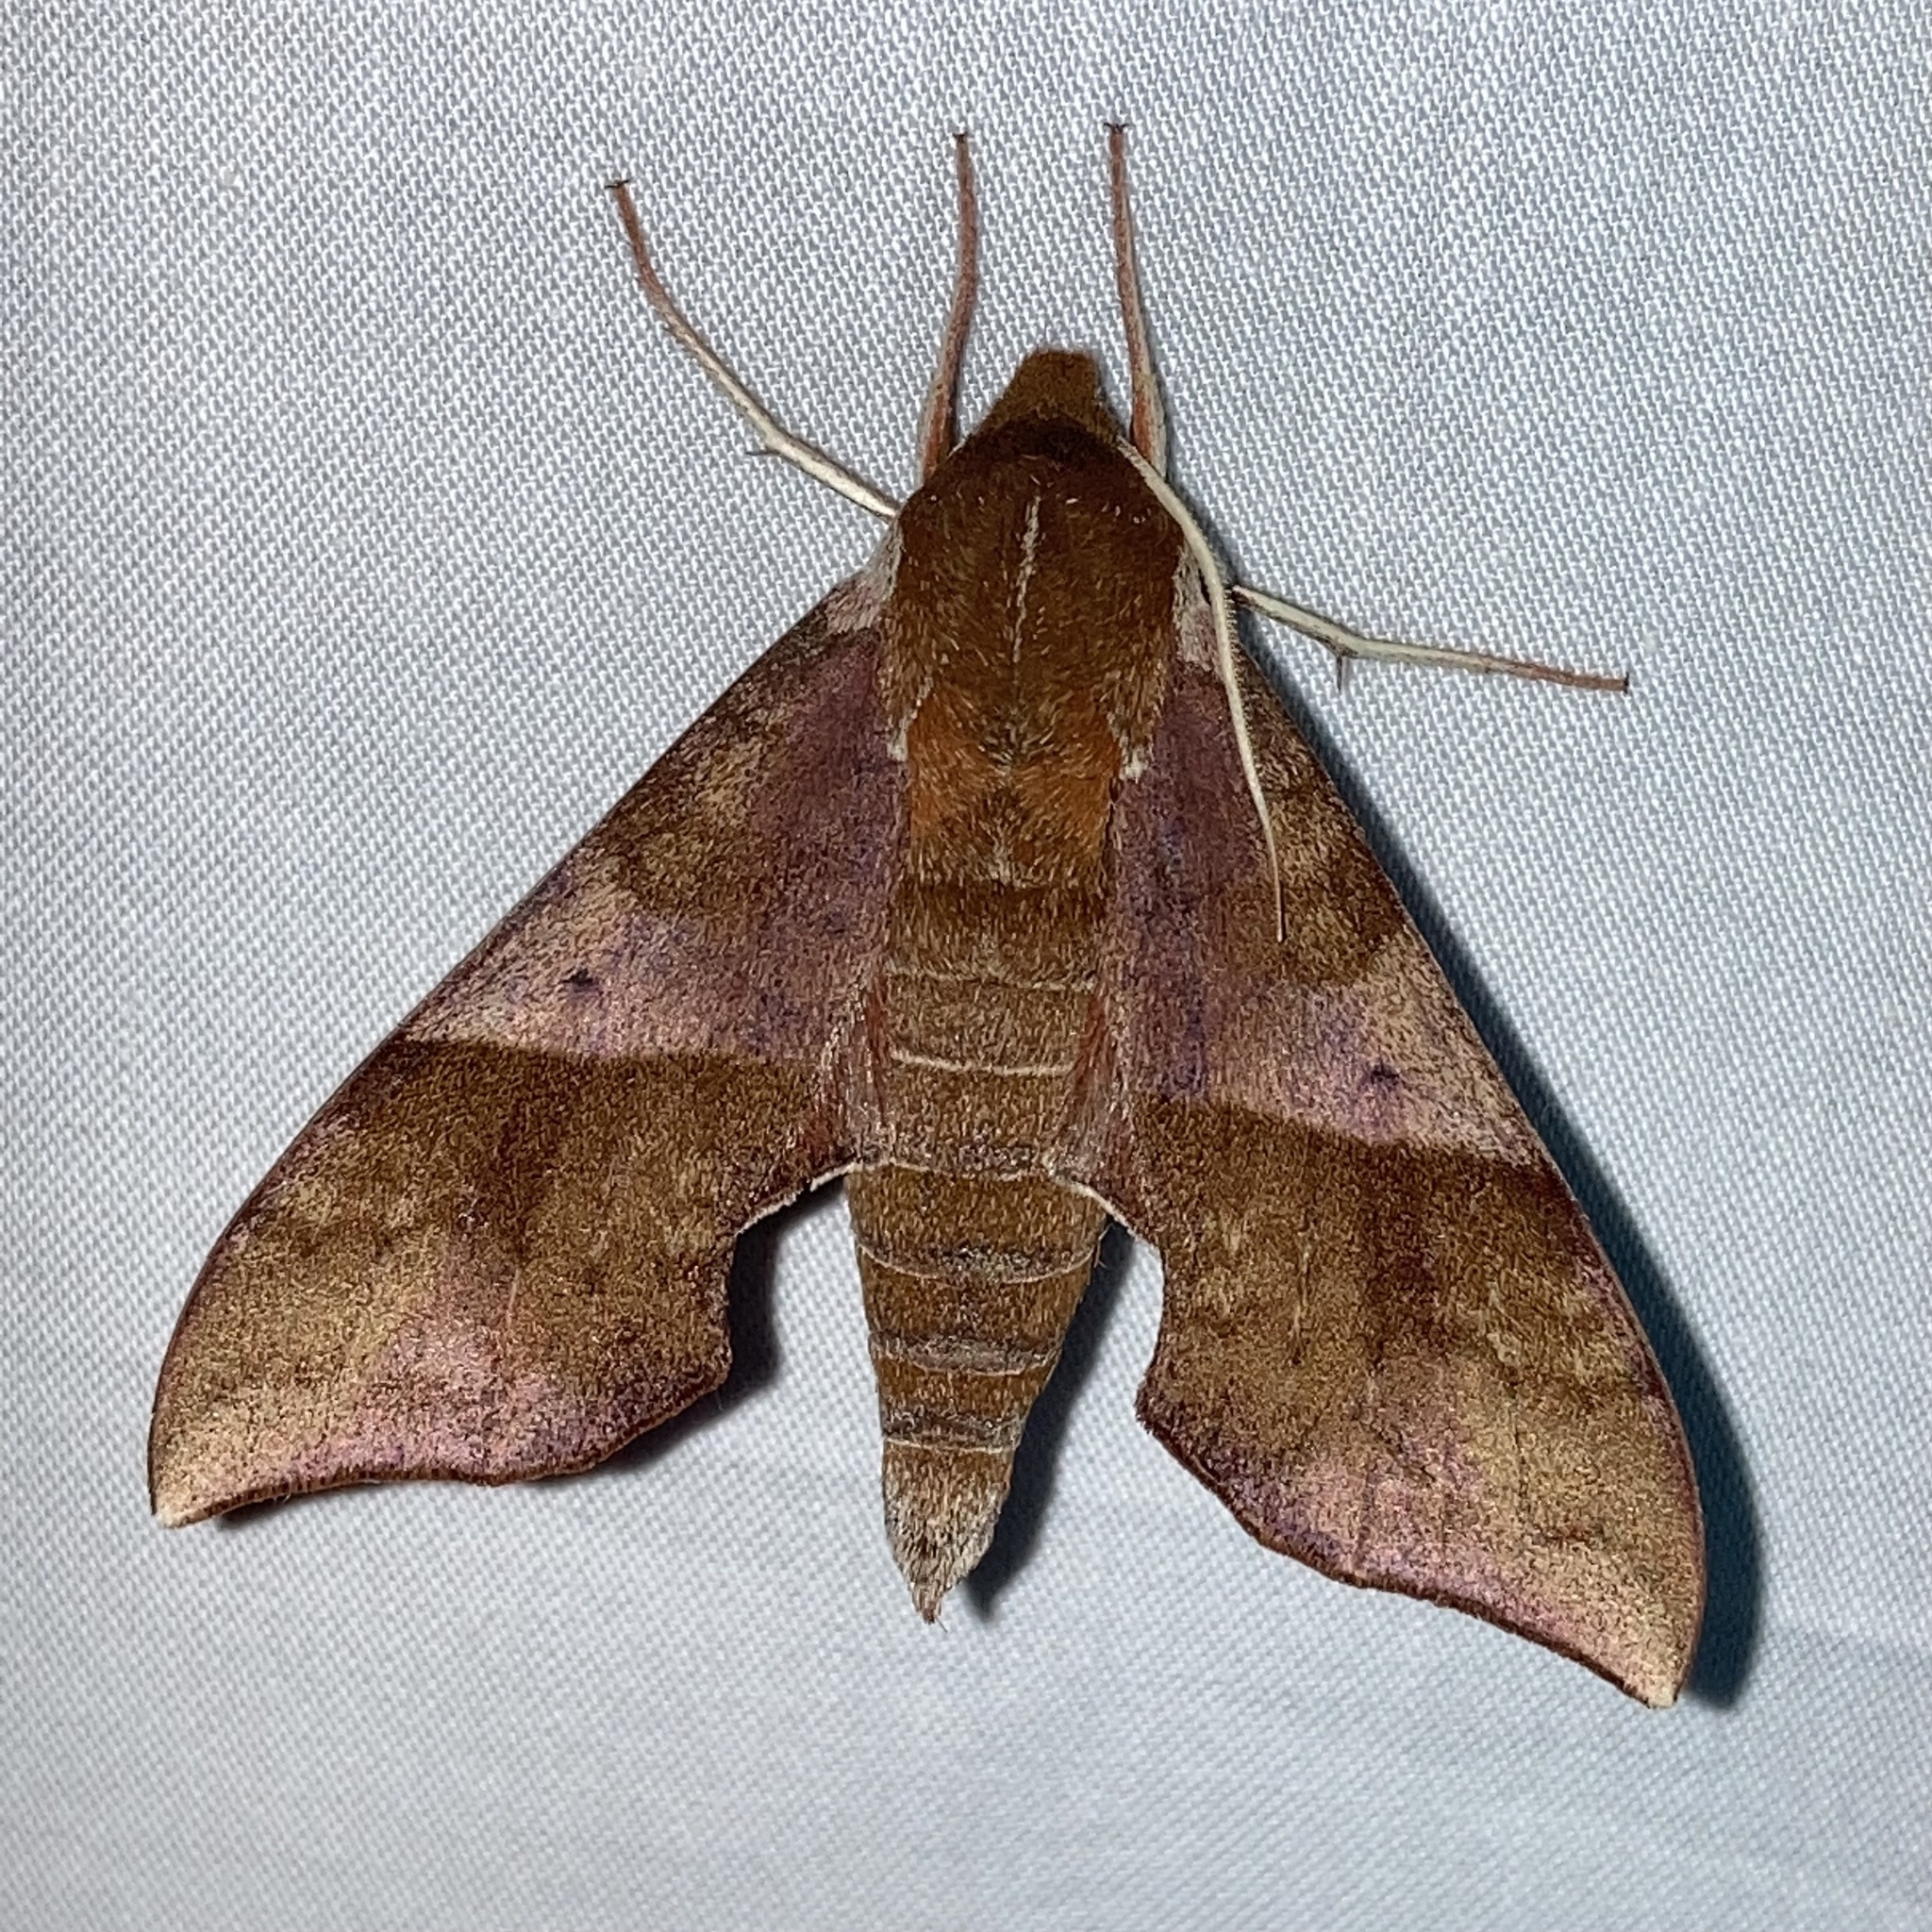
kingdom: Animalia
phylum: Arthropoda
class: Insecta
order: Lepidoptera
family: Sphingidae
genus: Darapsa
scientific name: Darapsa choerilus
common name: Azalea sphinx
